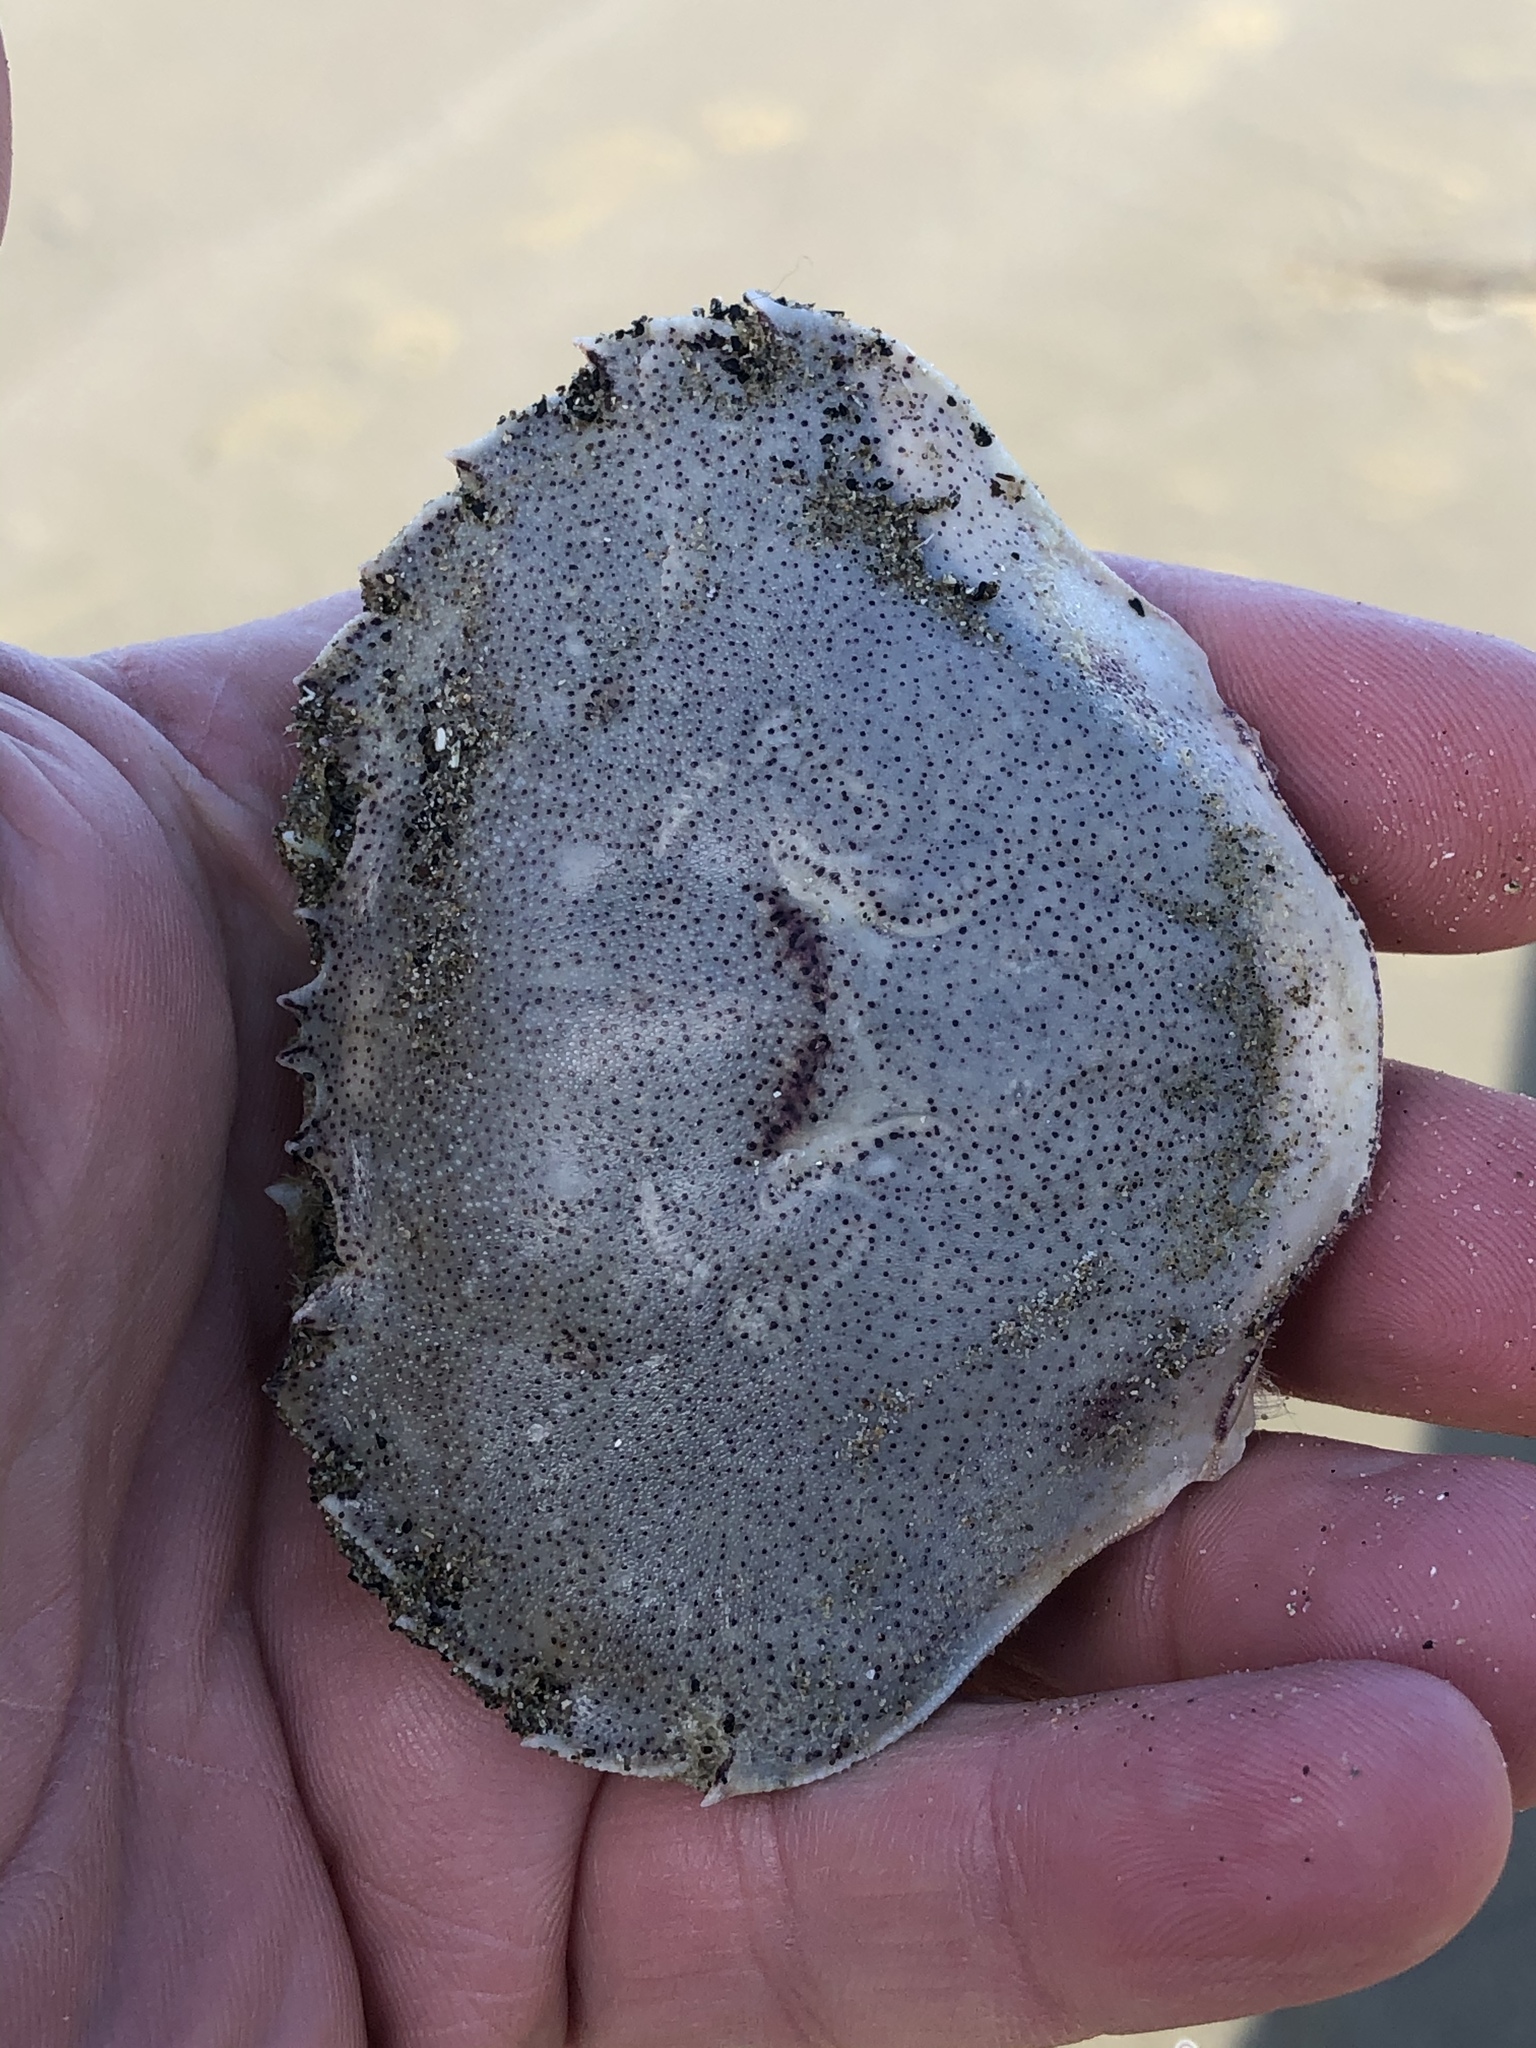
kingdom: Animalia
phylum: Arthropoda
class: Malacostraca
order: Decapoda
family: Ovalipidae
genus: Ovalipes
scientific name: Ovalipes catharus
